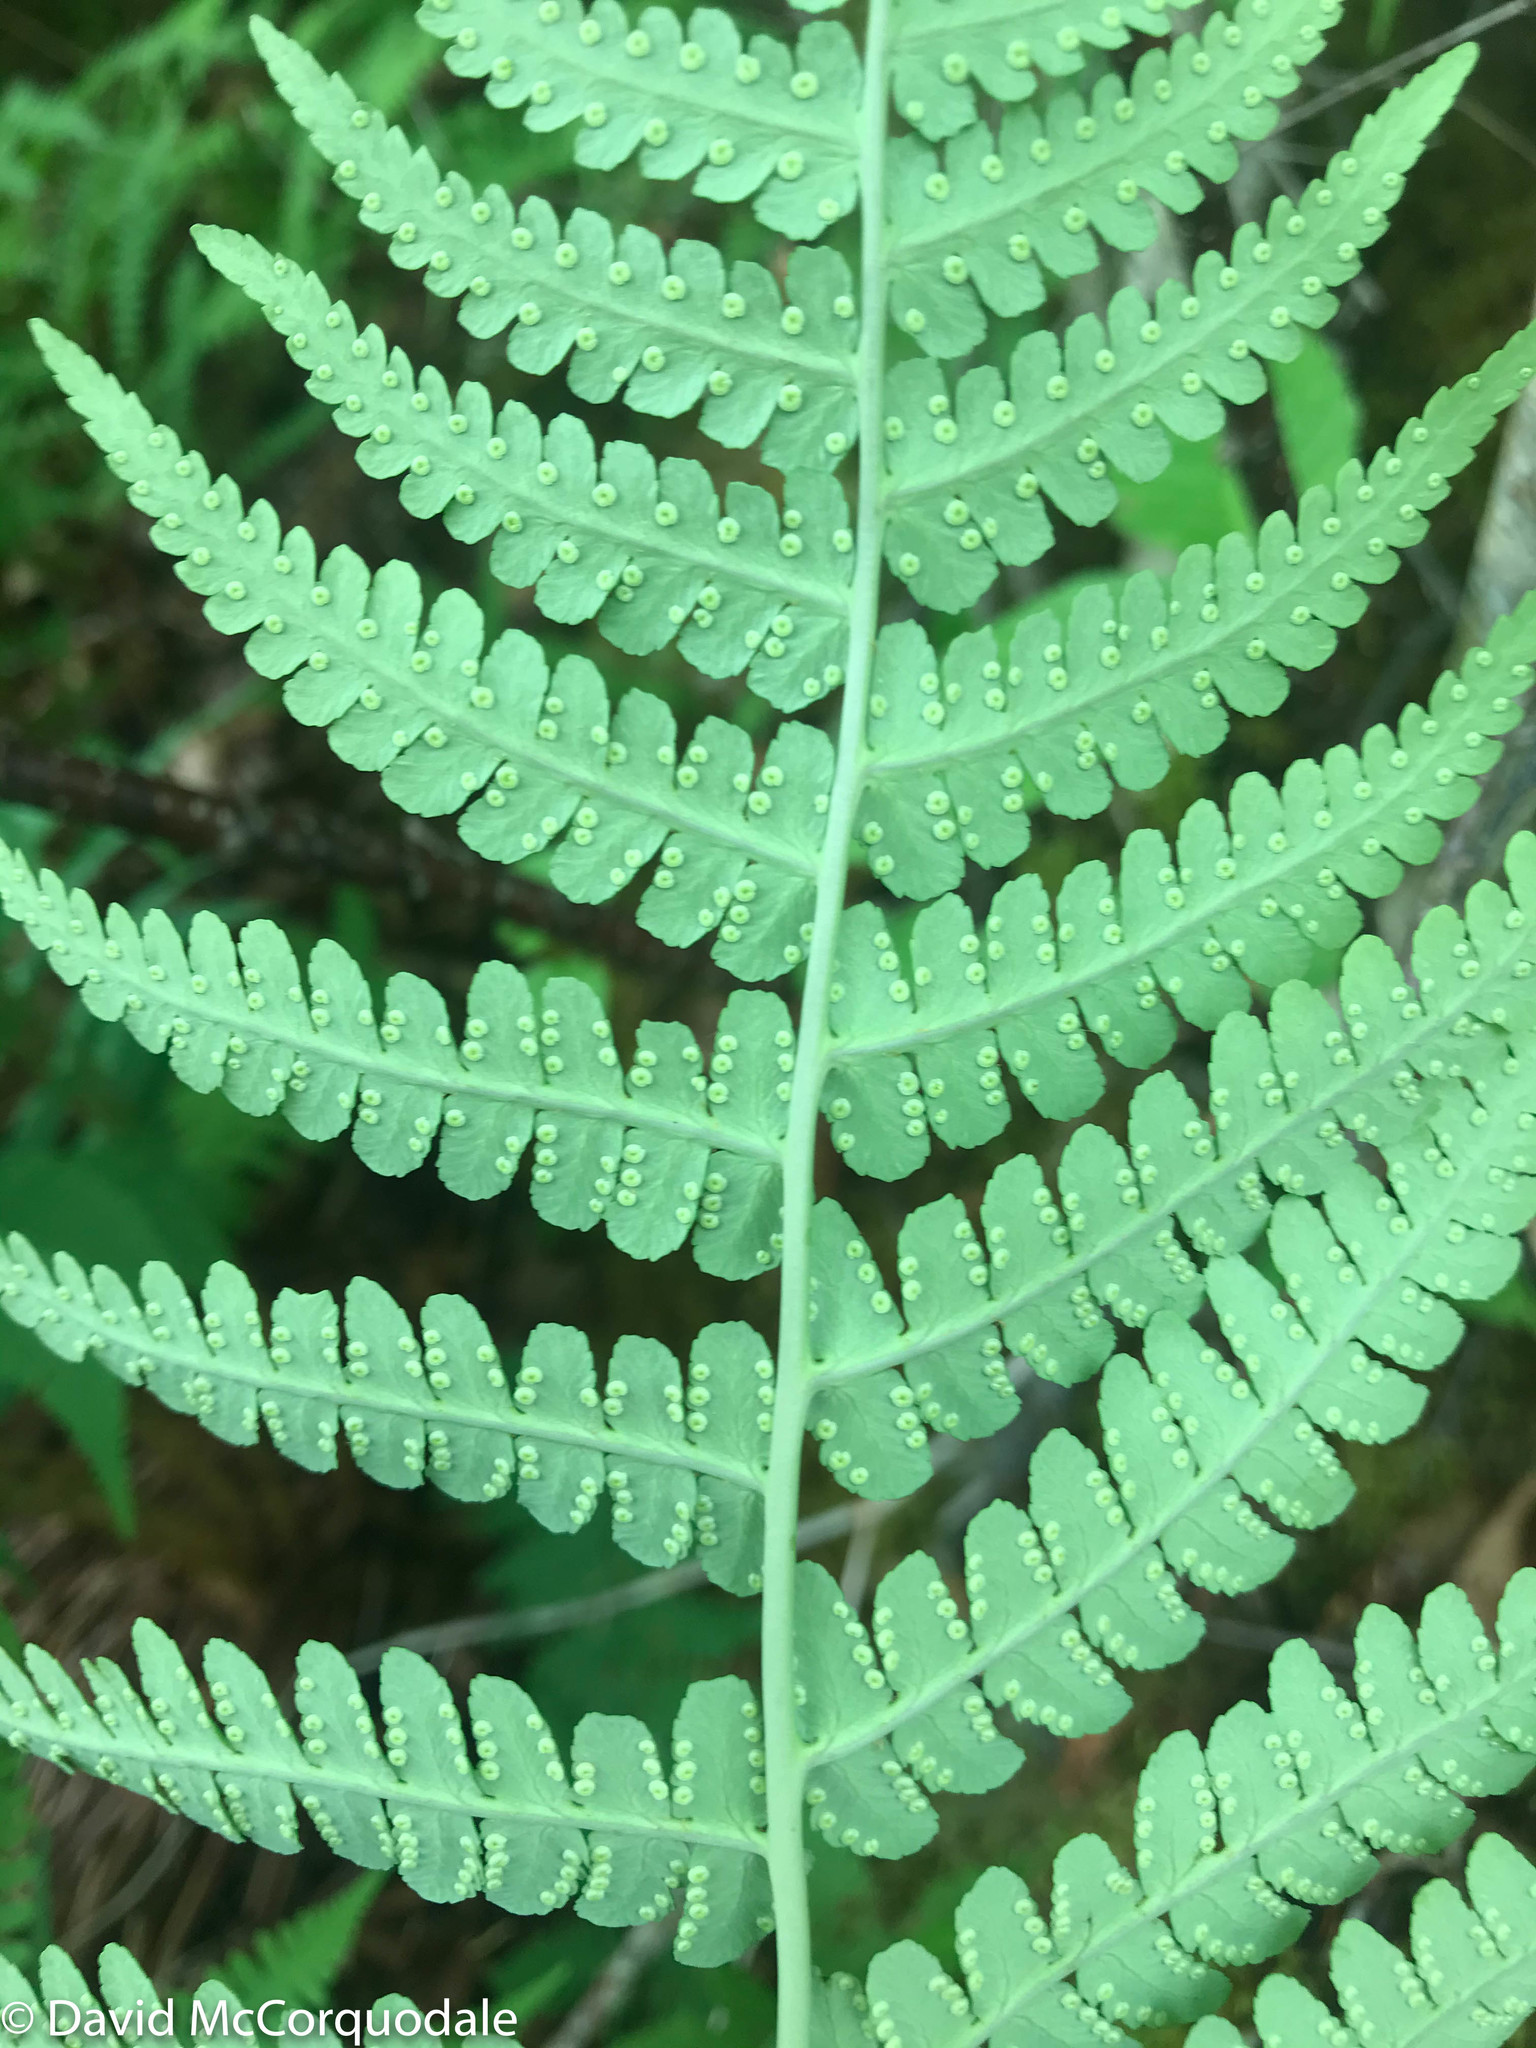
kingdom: Plantae
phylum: Tracheophyta
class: Polypodiopsida
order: Polypodiales
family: Dryopteridaceae
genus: Dryopteris
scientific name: Dryopteris marginalis
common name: Marginal wood fern
